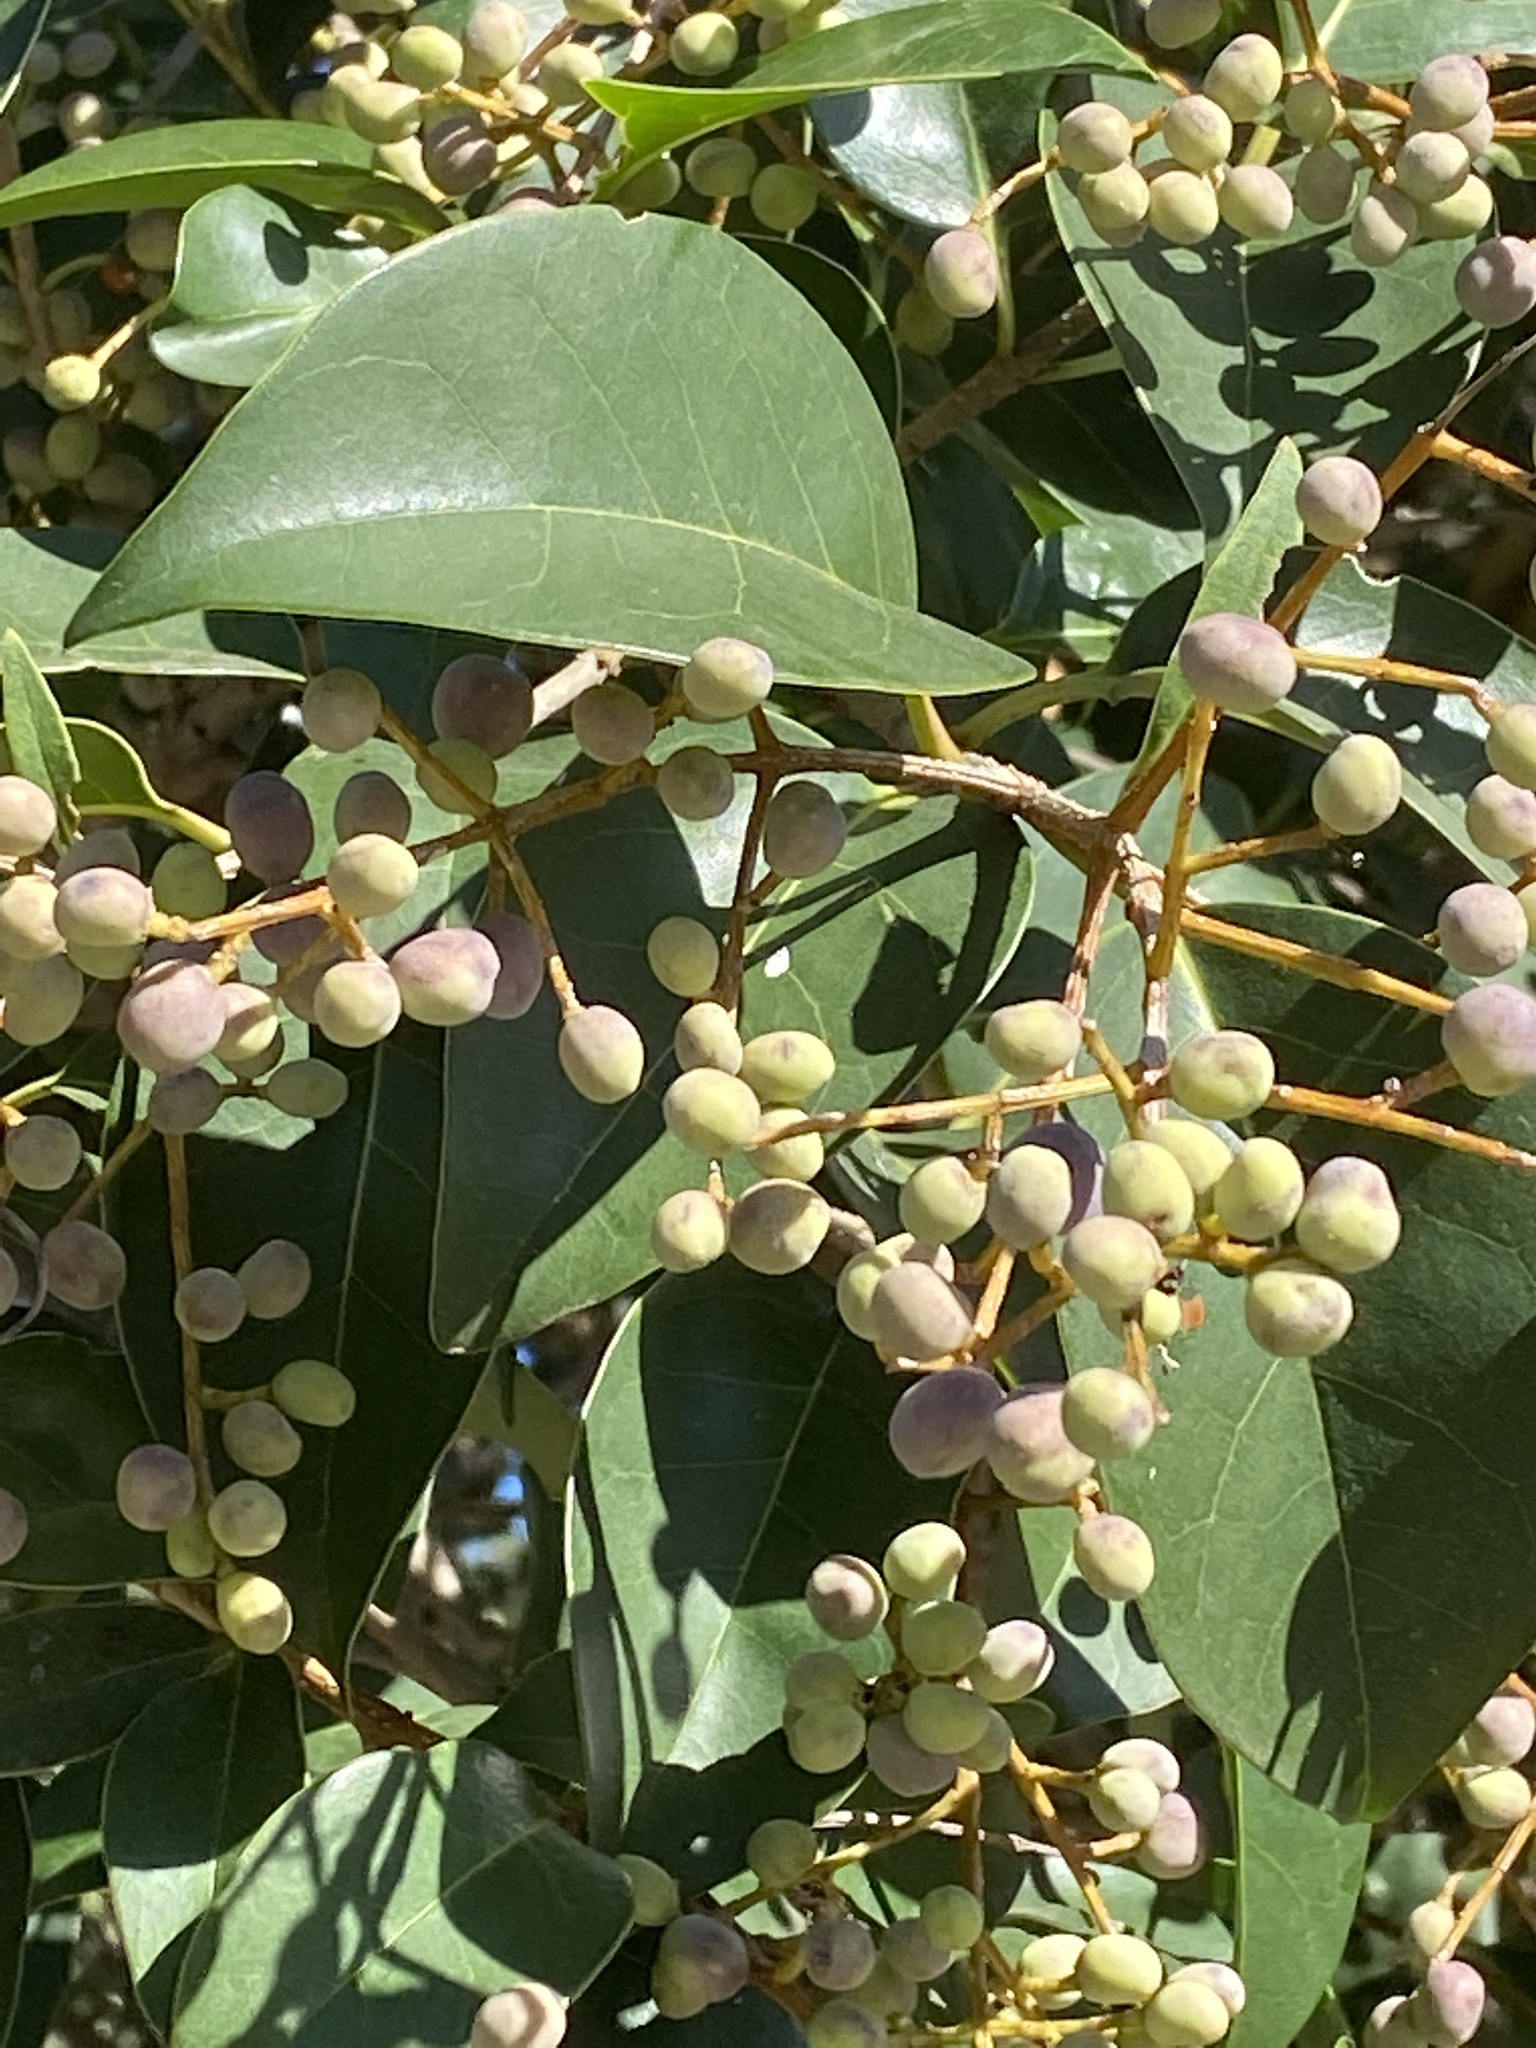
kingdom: Plantae
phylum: Tracheophyta
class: Magnoliopsida
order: Lamiales
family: Oleaceae
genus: Ligustrum
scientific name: Ligustrum lucidum
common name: Glossy privet
